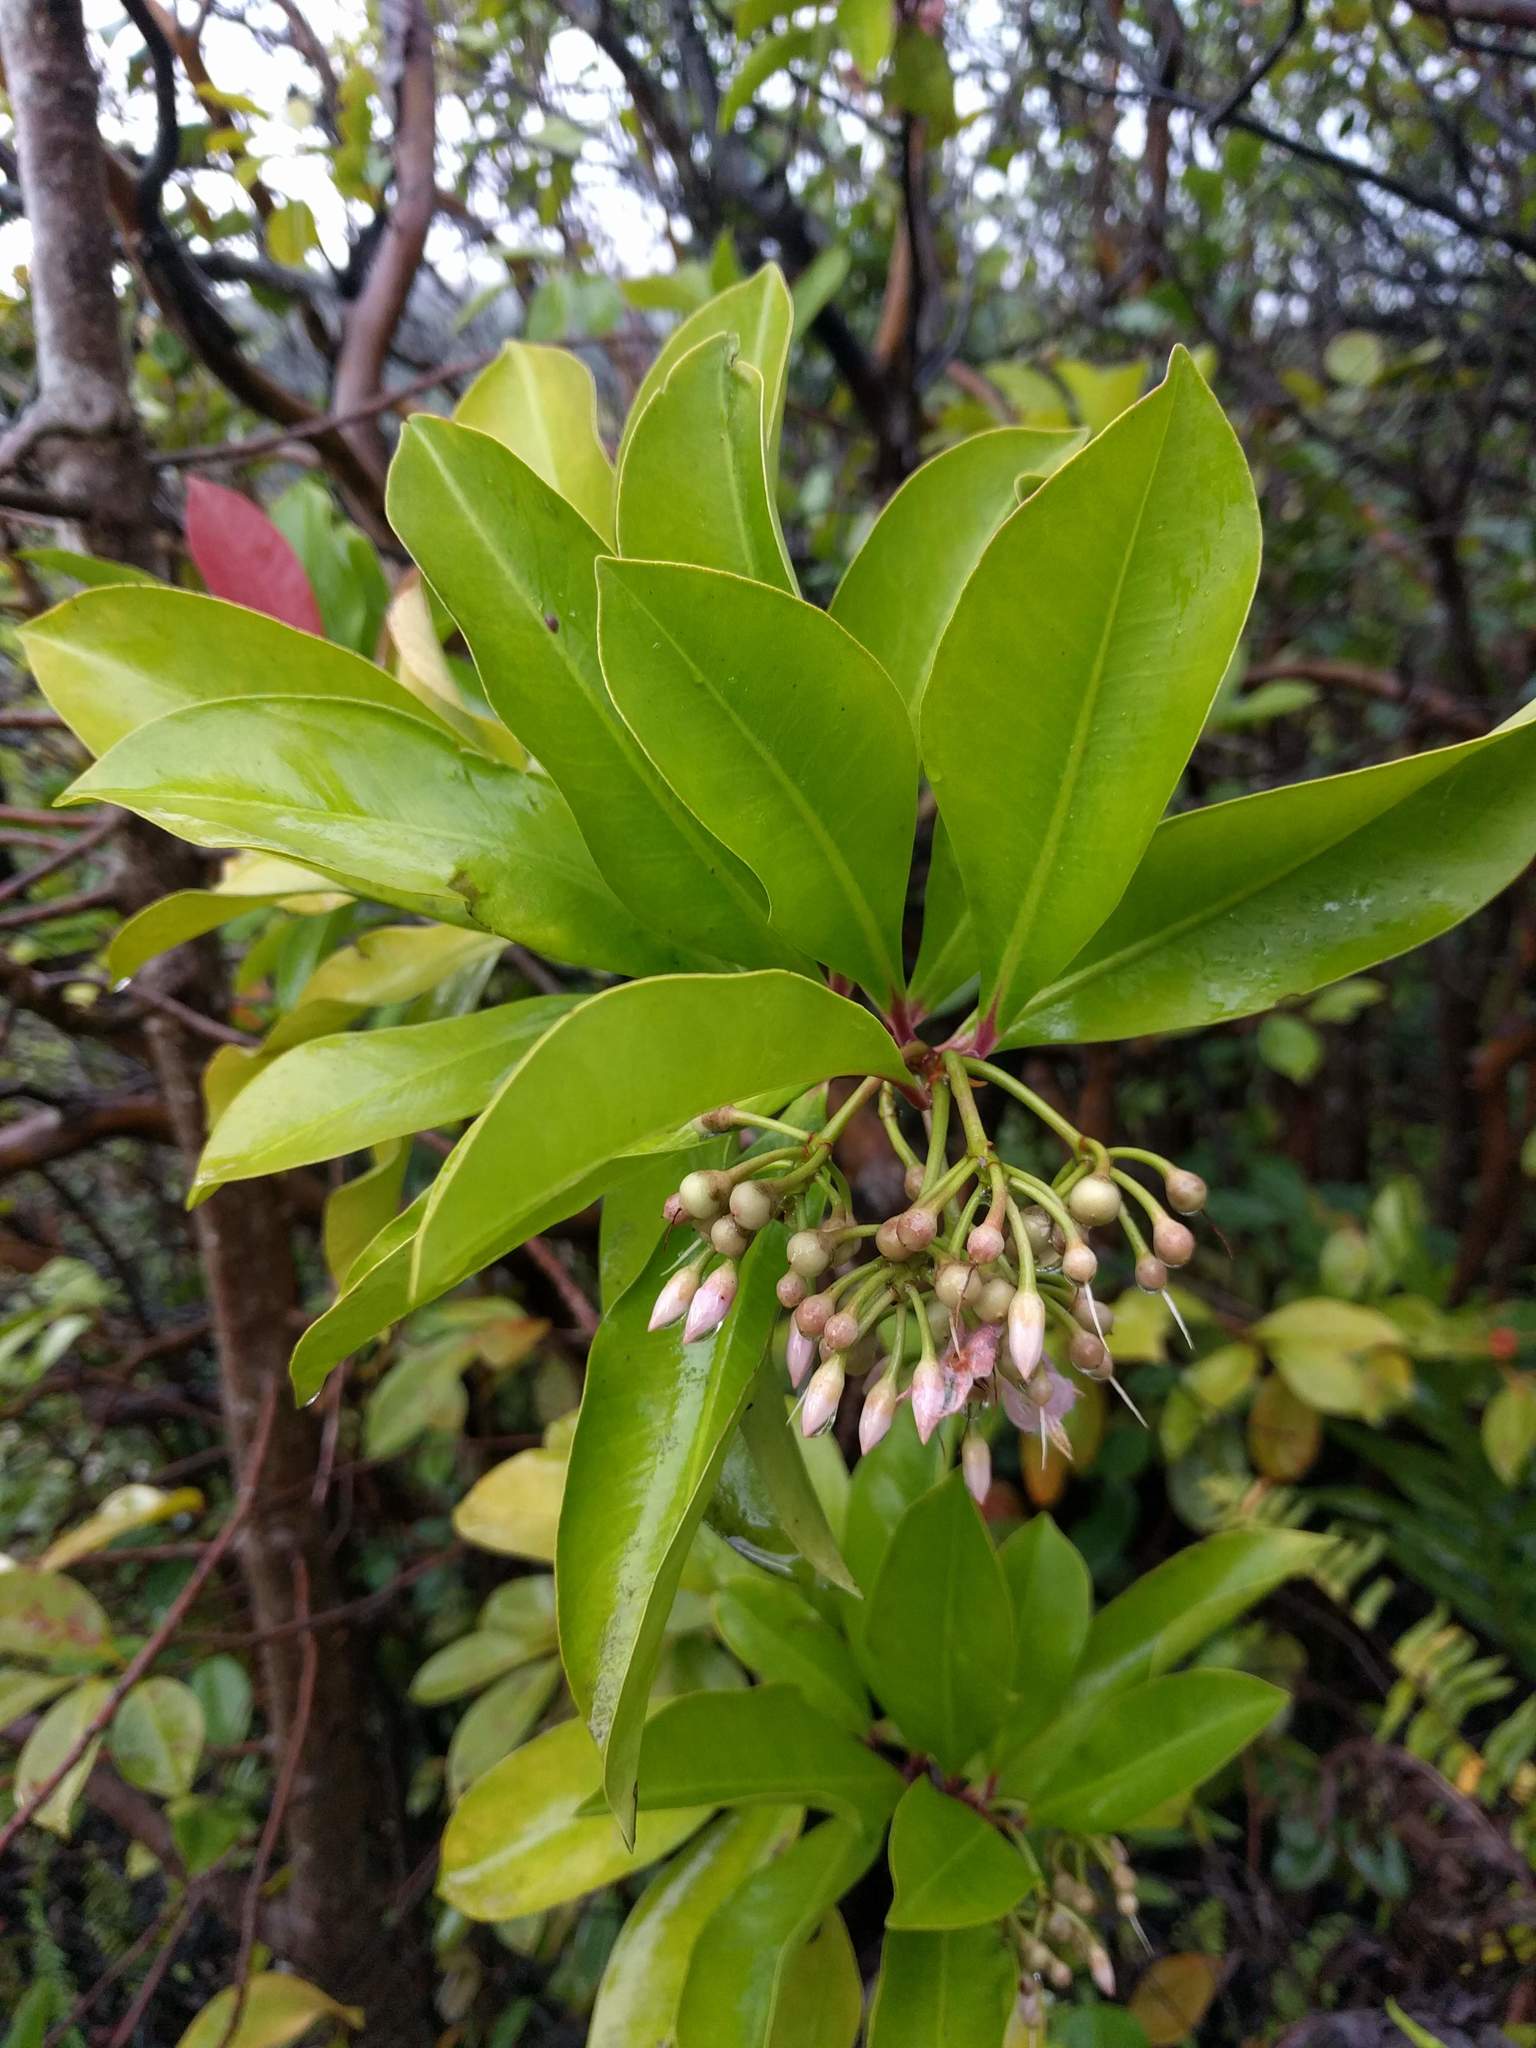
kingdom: Plantae
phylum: Tracheophyta
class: Magnoliopsida
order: Ericales
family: Primulaceae
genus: Ardisia
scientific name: Ardisia elliptica
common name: Shoebutton
